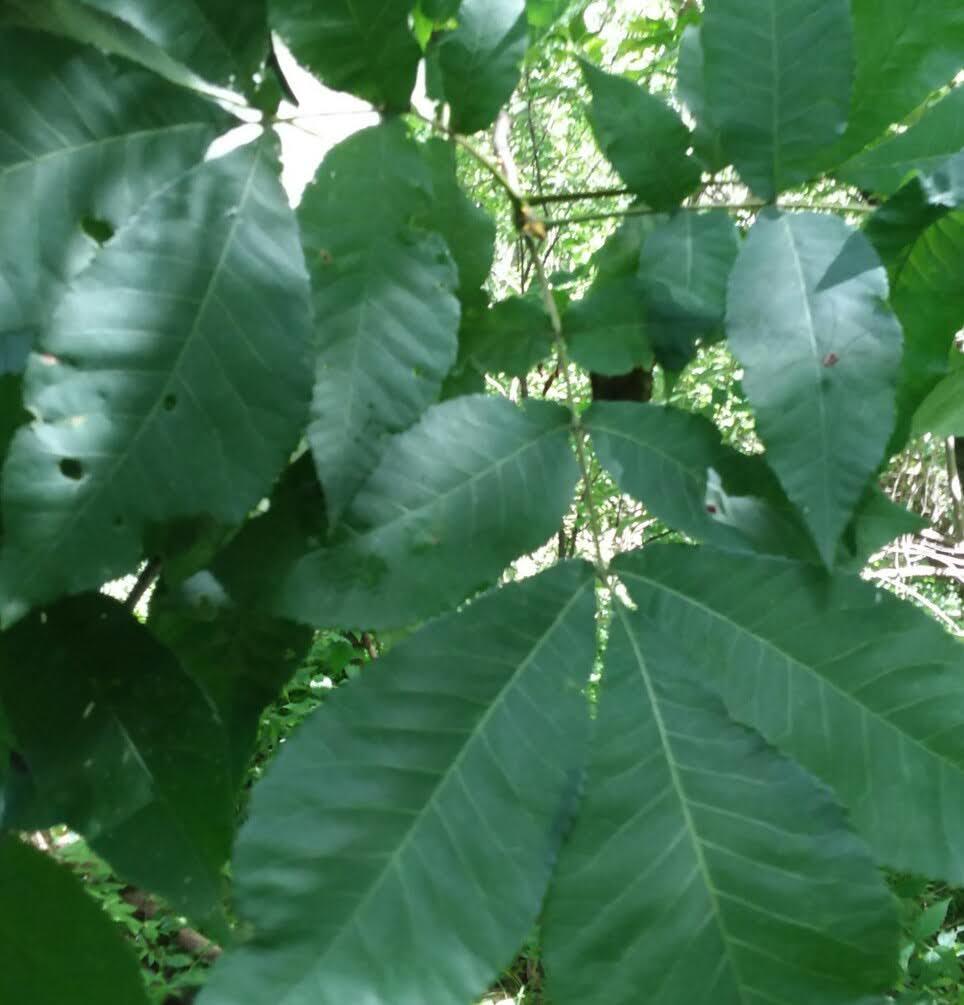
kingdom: Plantae
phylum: Tracheophyta
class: Magnoliopsida
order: Fagales
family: Juglandaceae
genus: Carya
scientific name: Carya cordiformis
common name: Bitternut hickory
